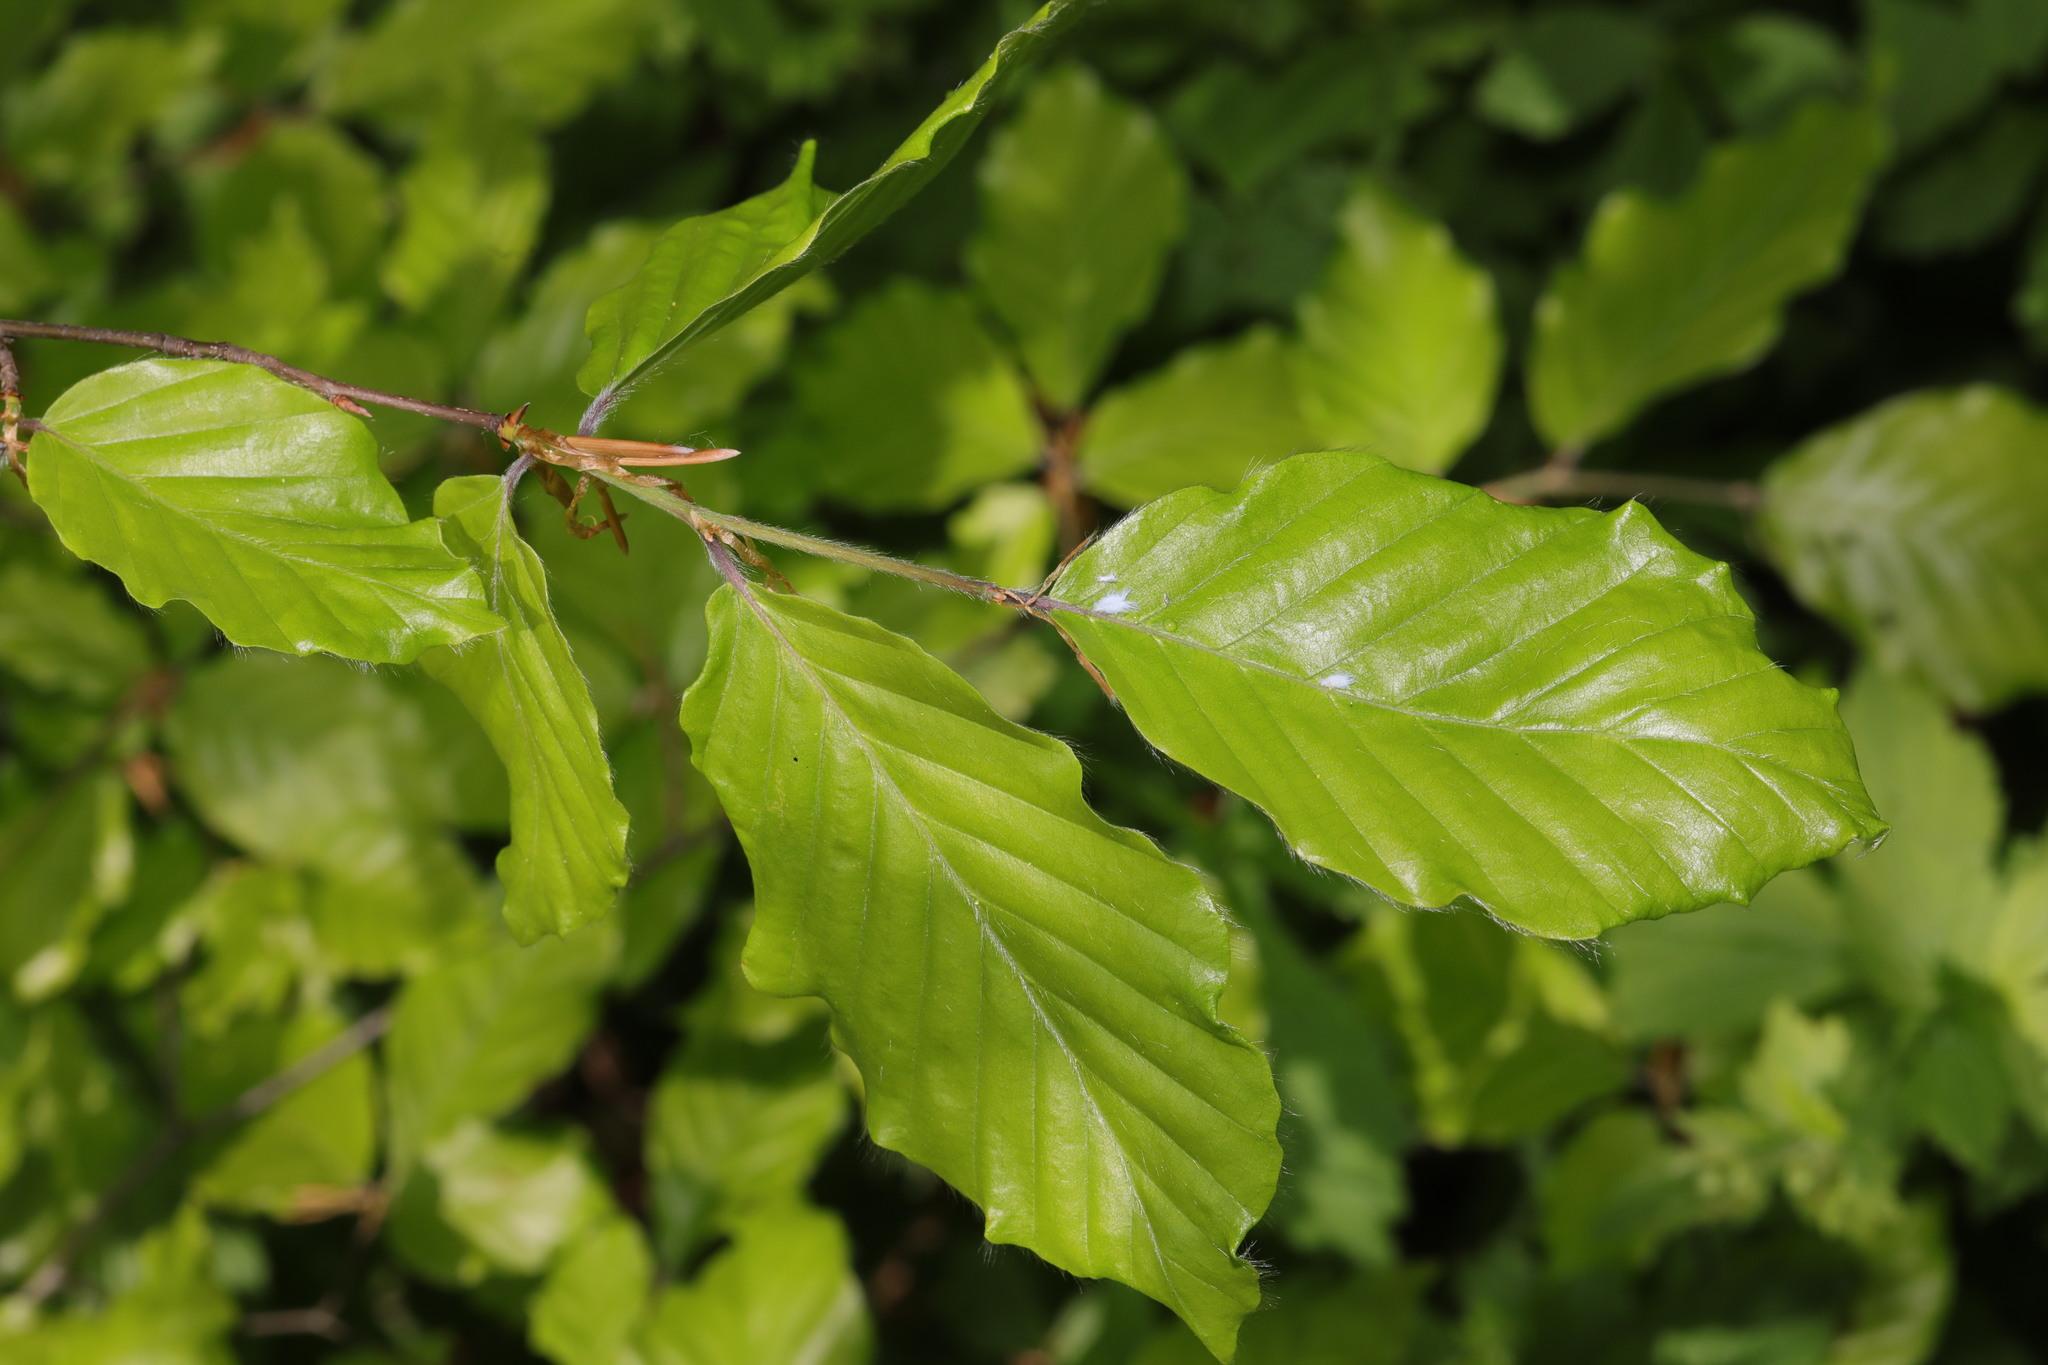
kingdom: Plantae
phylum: Tracheophyta
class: Magnoliopsida
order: Fagales
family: Fagaceae
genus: Fagus
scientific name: Fagus sylvatica
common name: Beech
